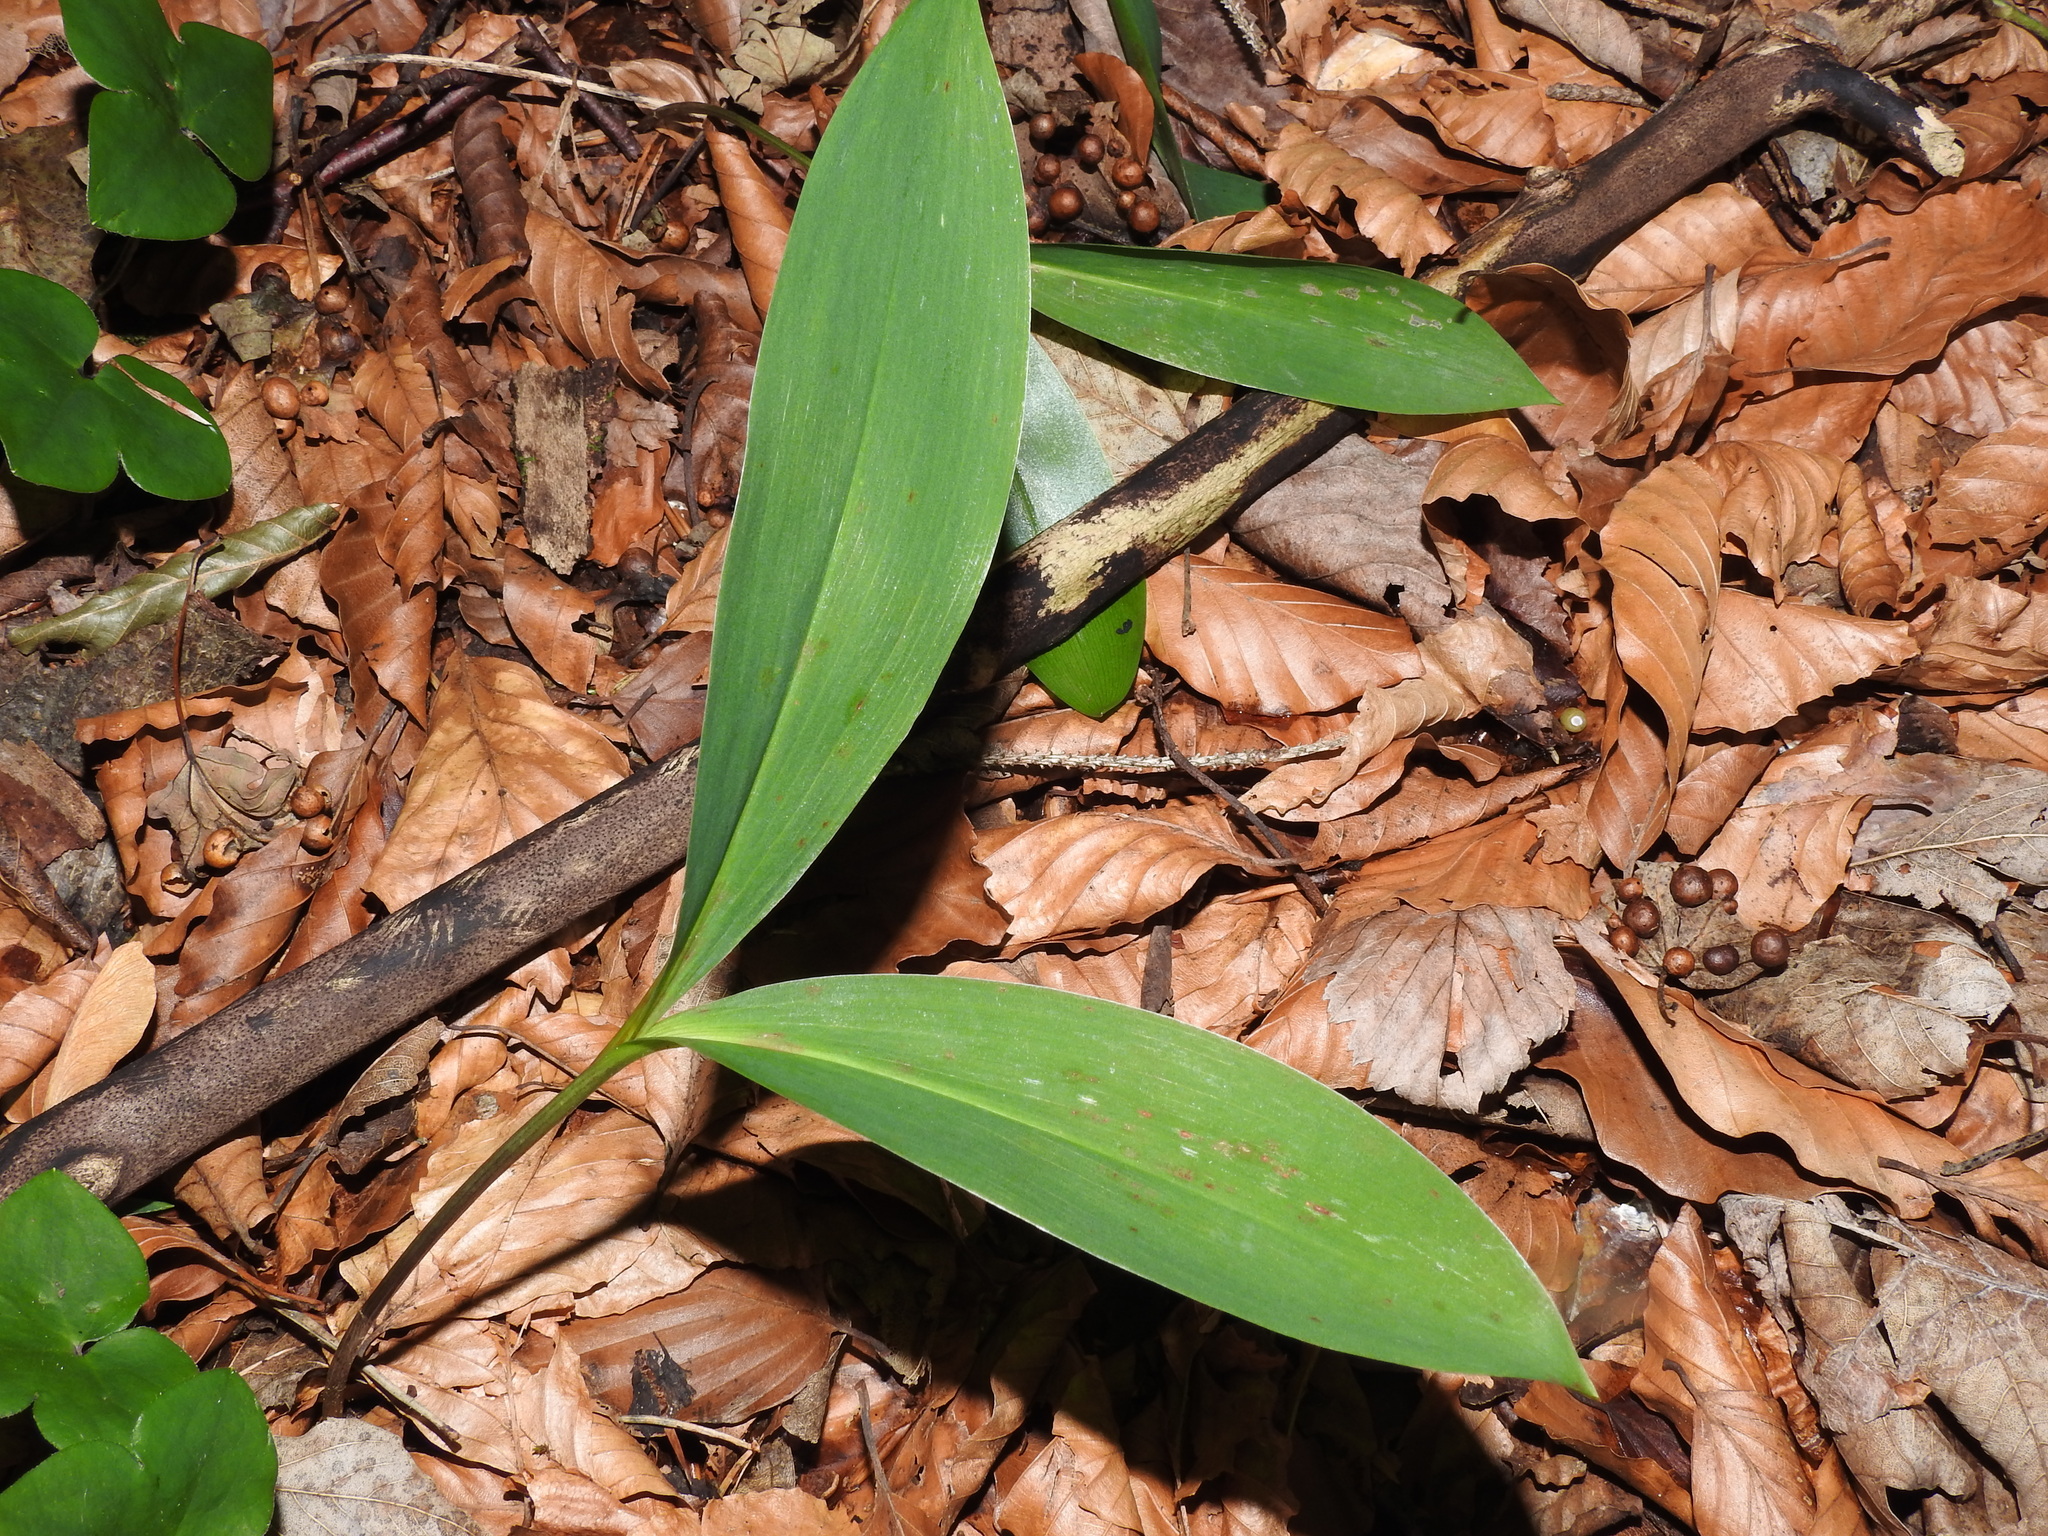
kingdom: Plantae
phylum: Tracheophyta
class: Liliopsida
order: Asparagales
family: Asparagaceae
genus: Convallaria
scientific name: Convallaria majalis
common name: Lily-of-the-valley
